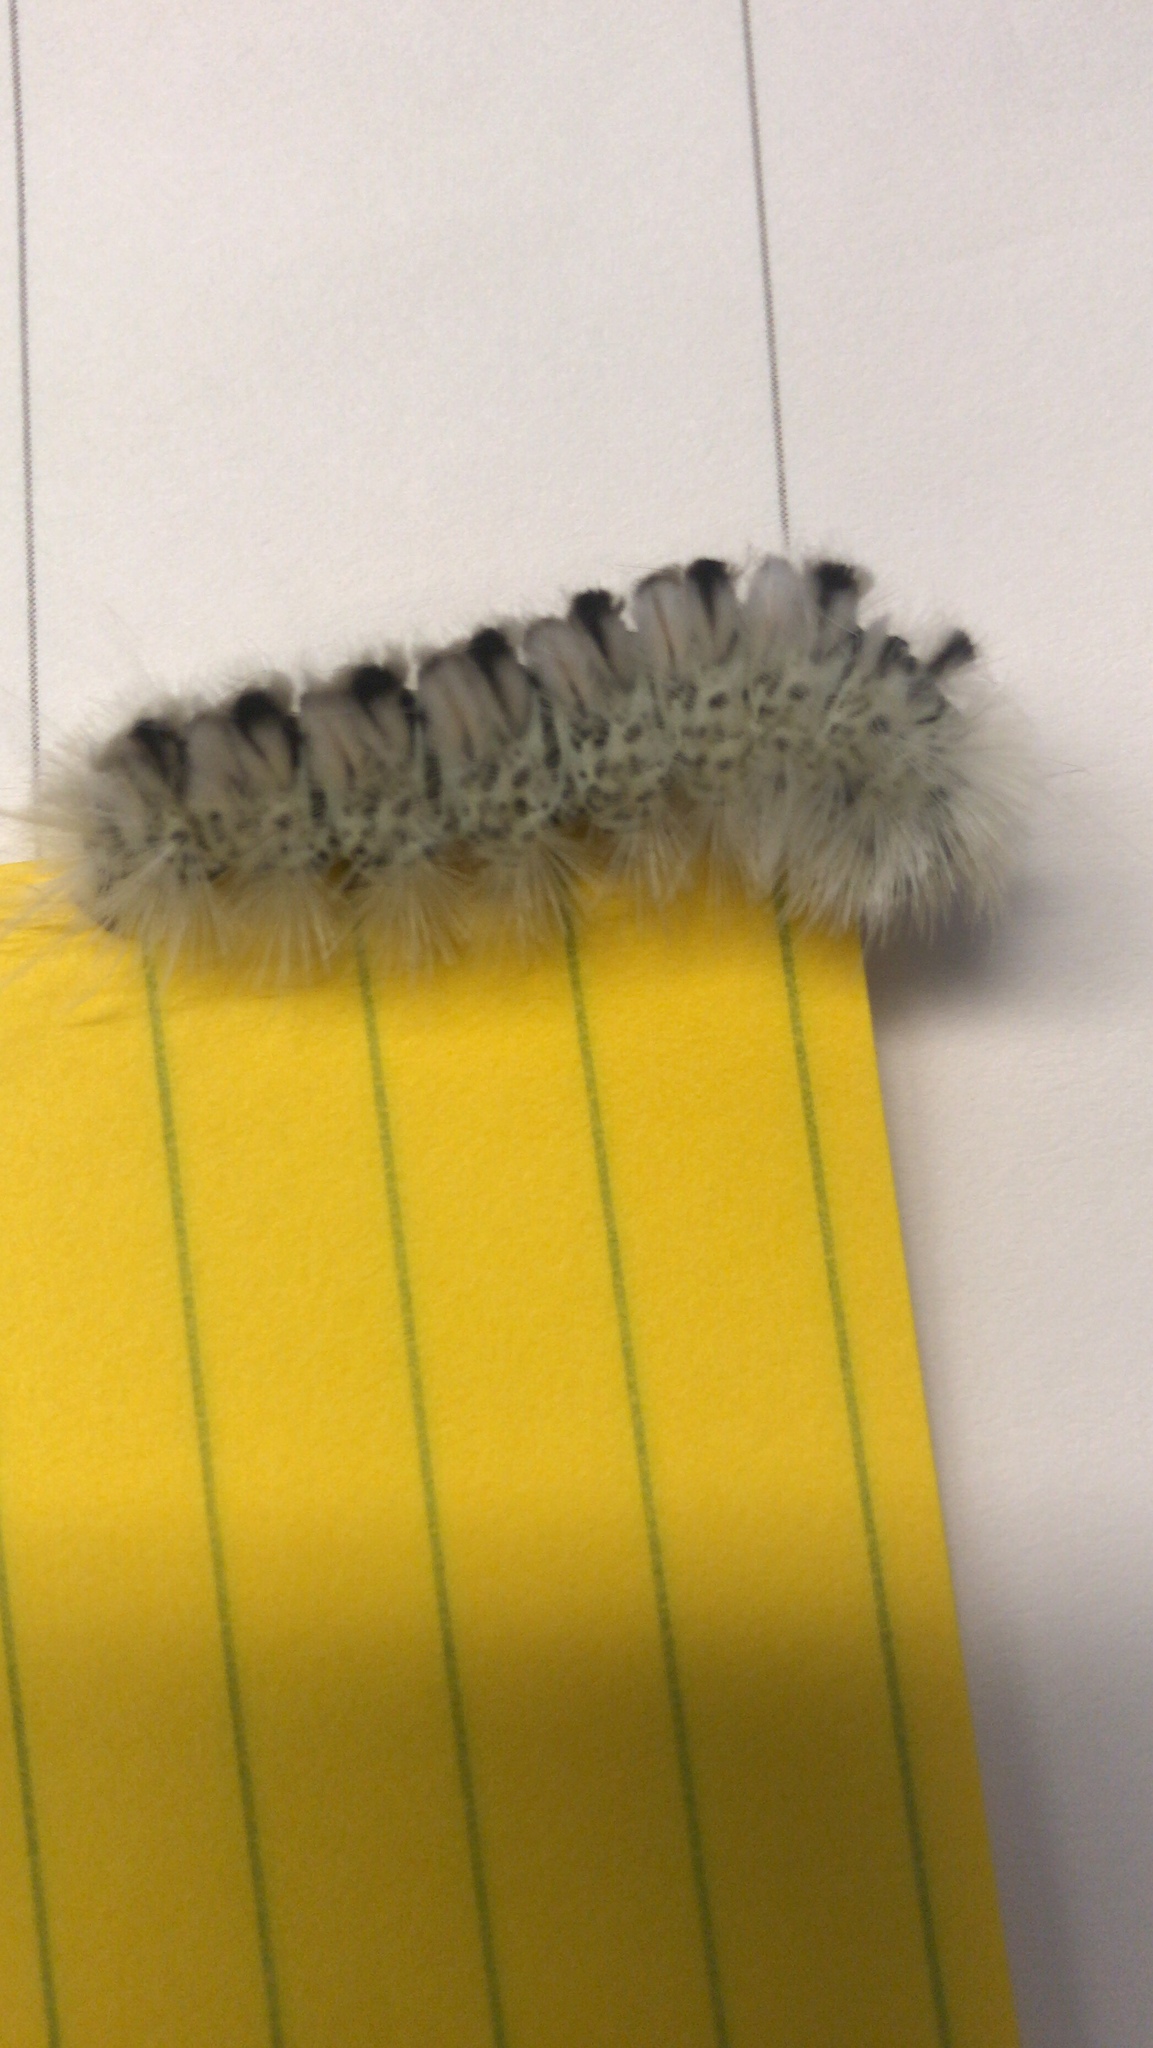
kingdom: Animalia
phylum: Arthropoda
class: Insecta
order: Lepidoptera
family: Erebidae
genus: Lophocampa
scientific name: Lophocampa caryae
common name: Hickory tussock moth
